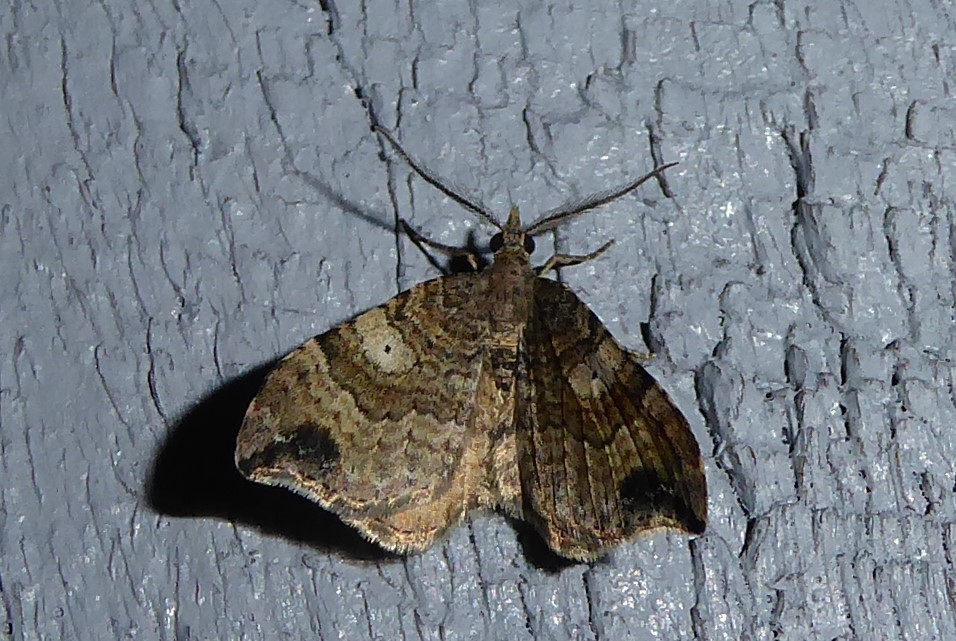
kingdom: Animalia
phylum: Arthropoda
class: Insecta
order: Lepidoptera
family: Geometridae
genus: Homodotis
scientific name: Homodotis megaspilata
